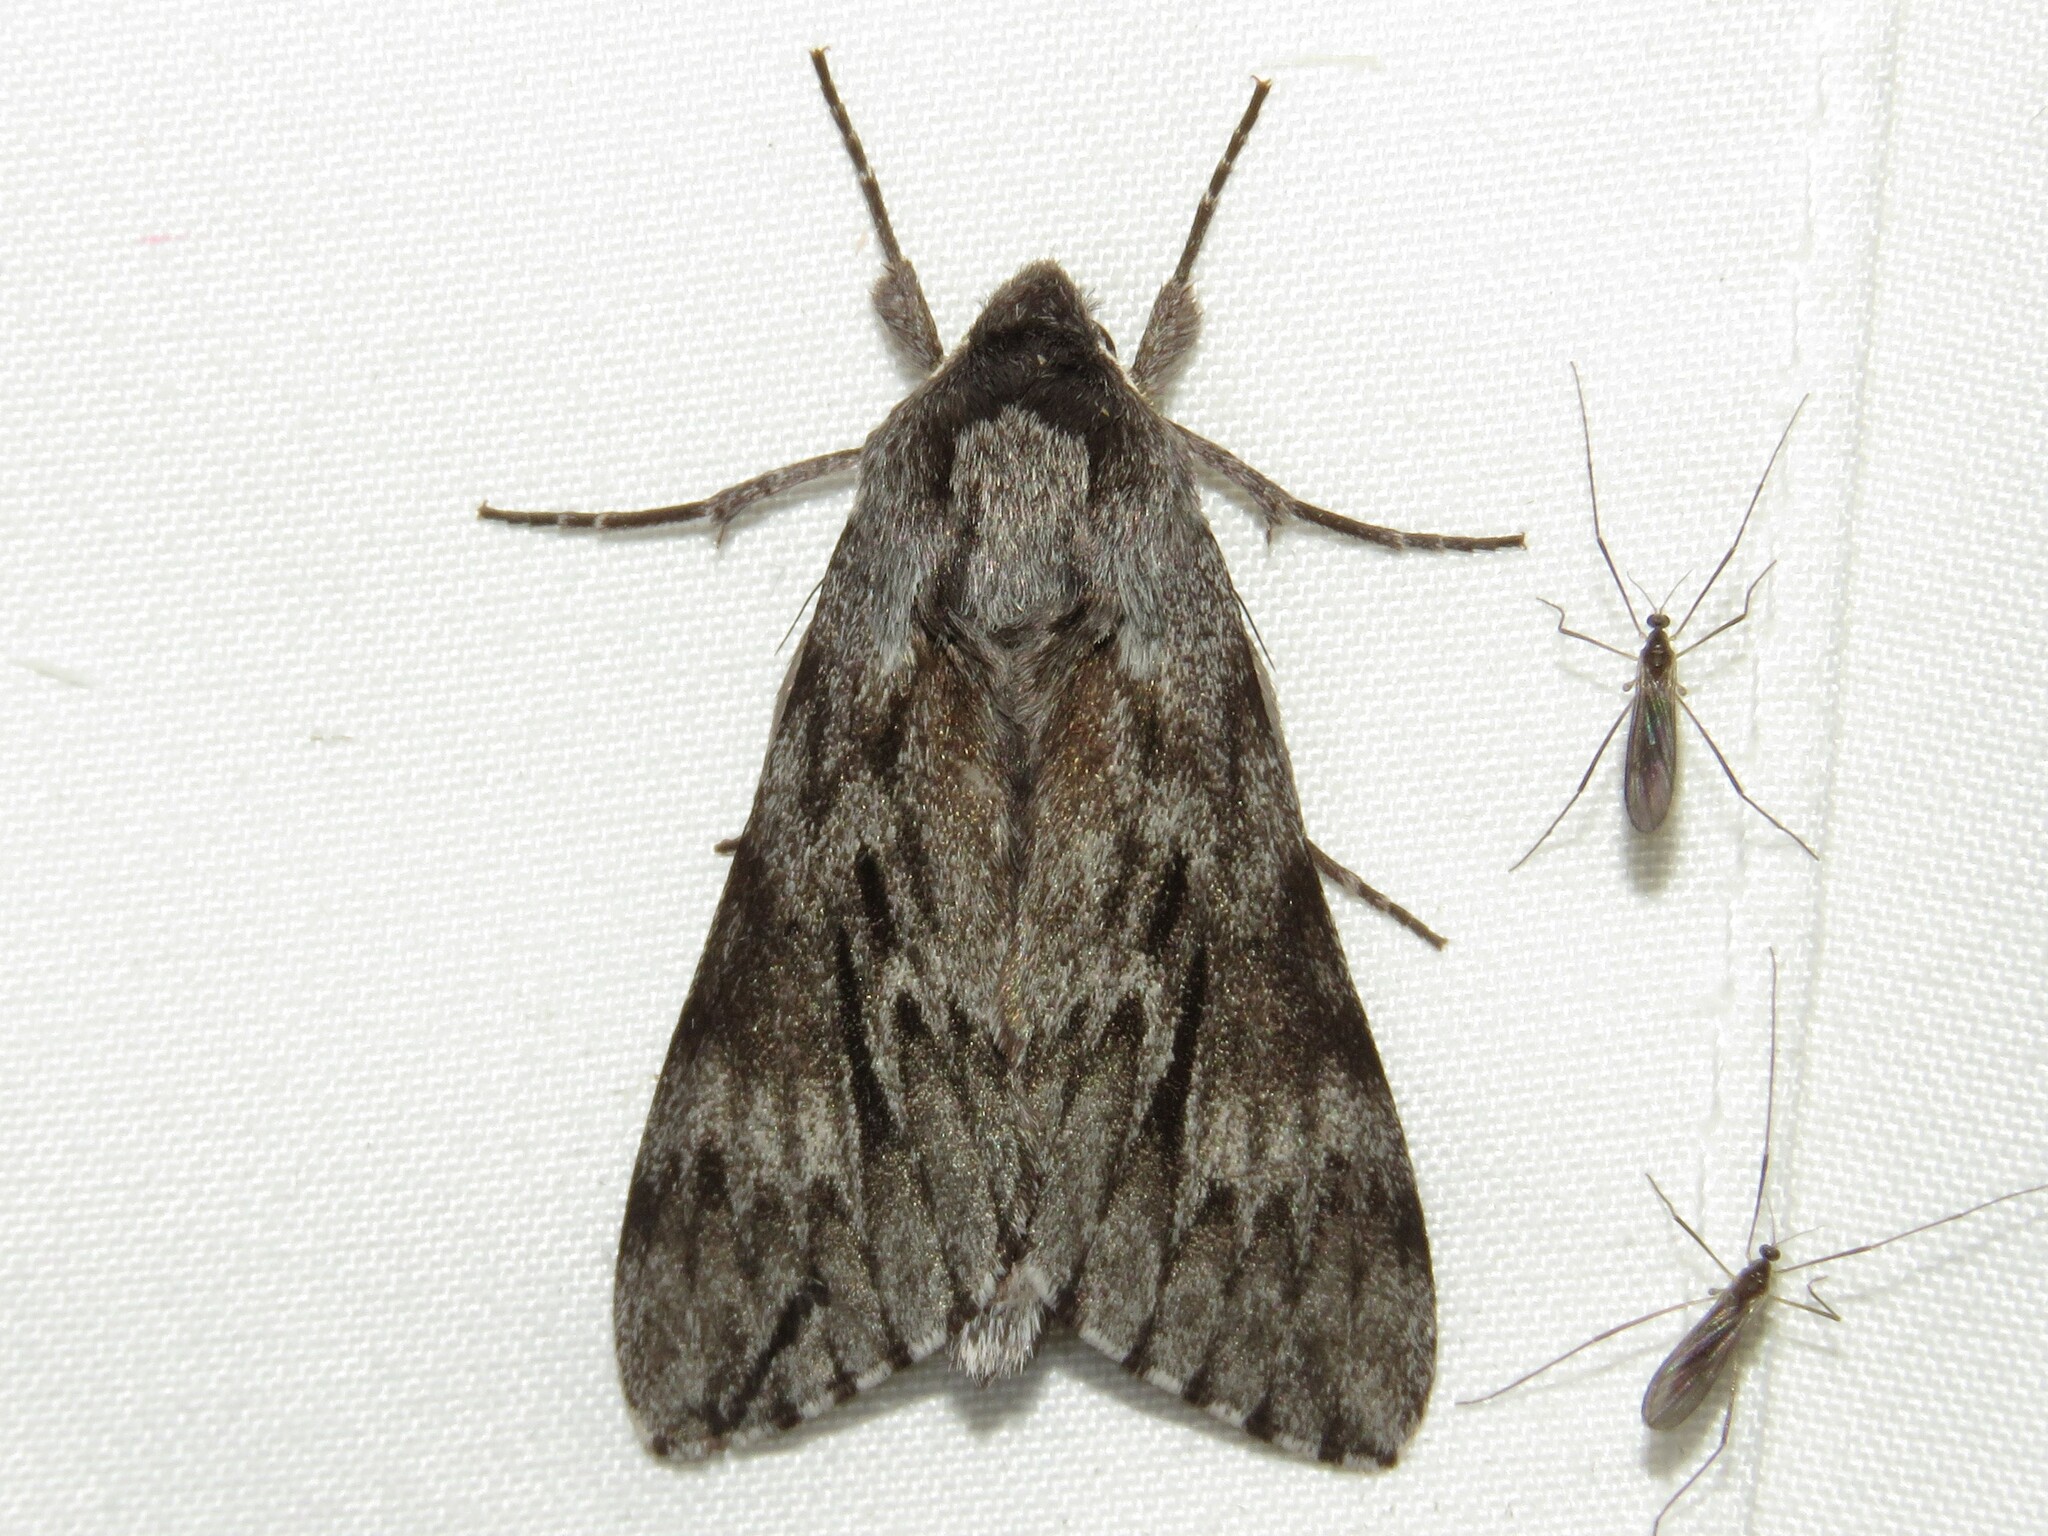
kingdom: Animalia
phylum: Arthropoda
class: Insecta
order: Lepidoptera
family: Sphingidae
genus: Lapara
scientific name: Lapara bombycoides
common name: Northern pine sphinx
